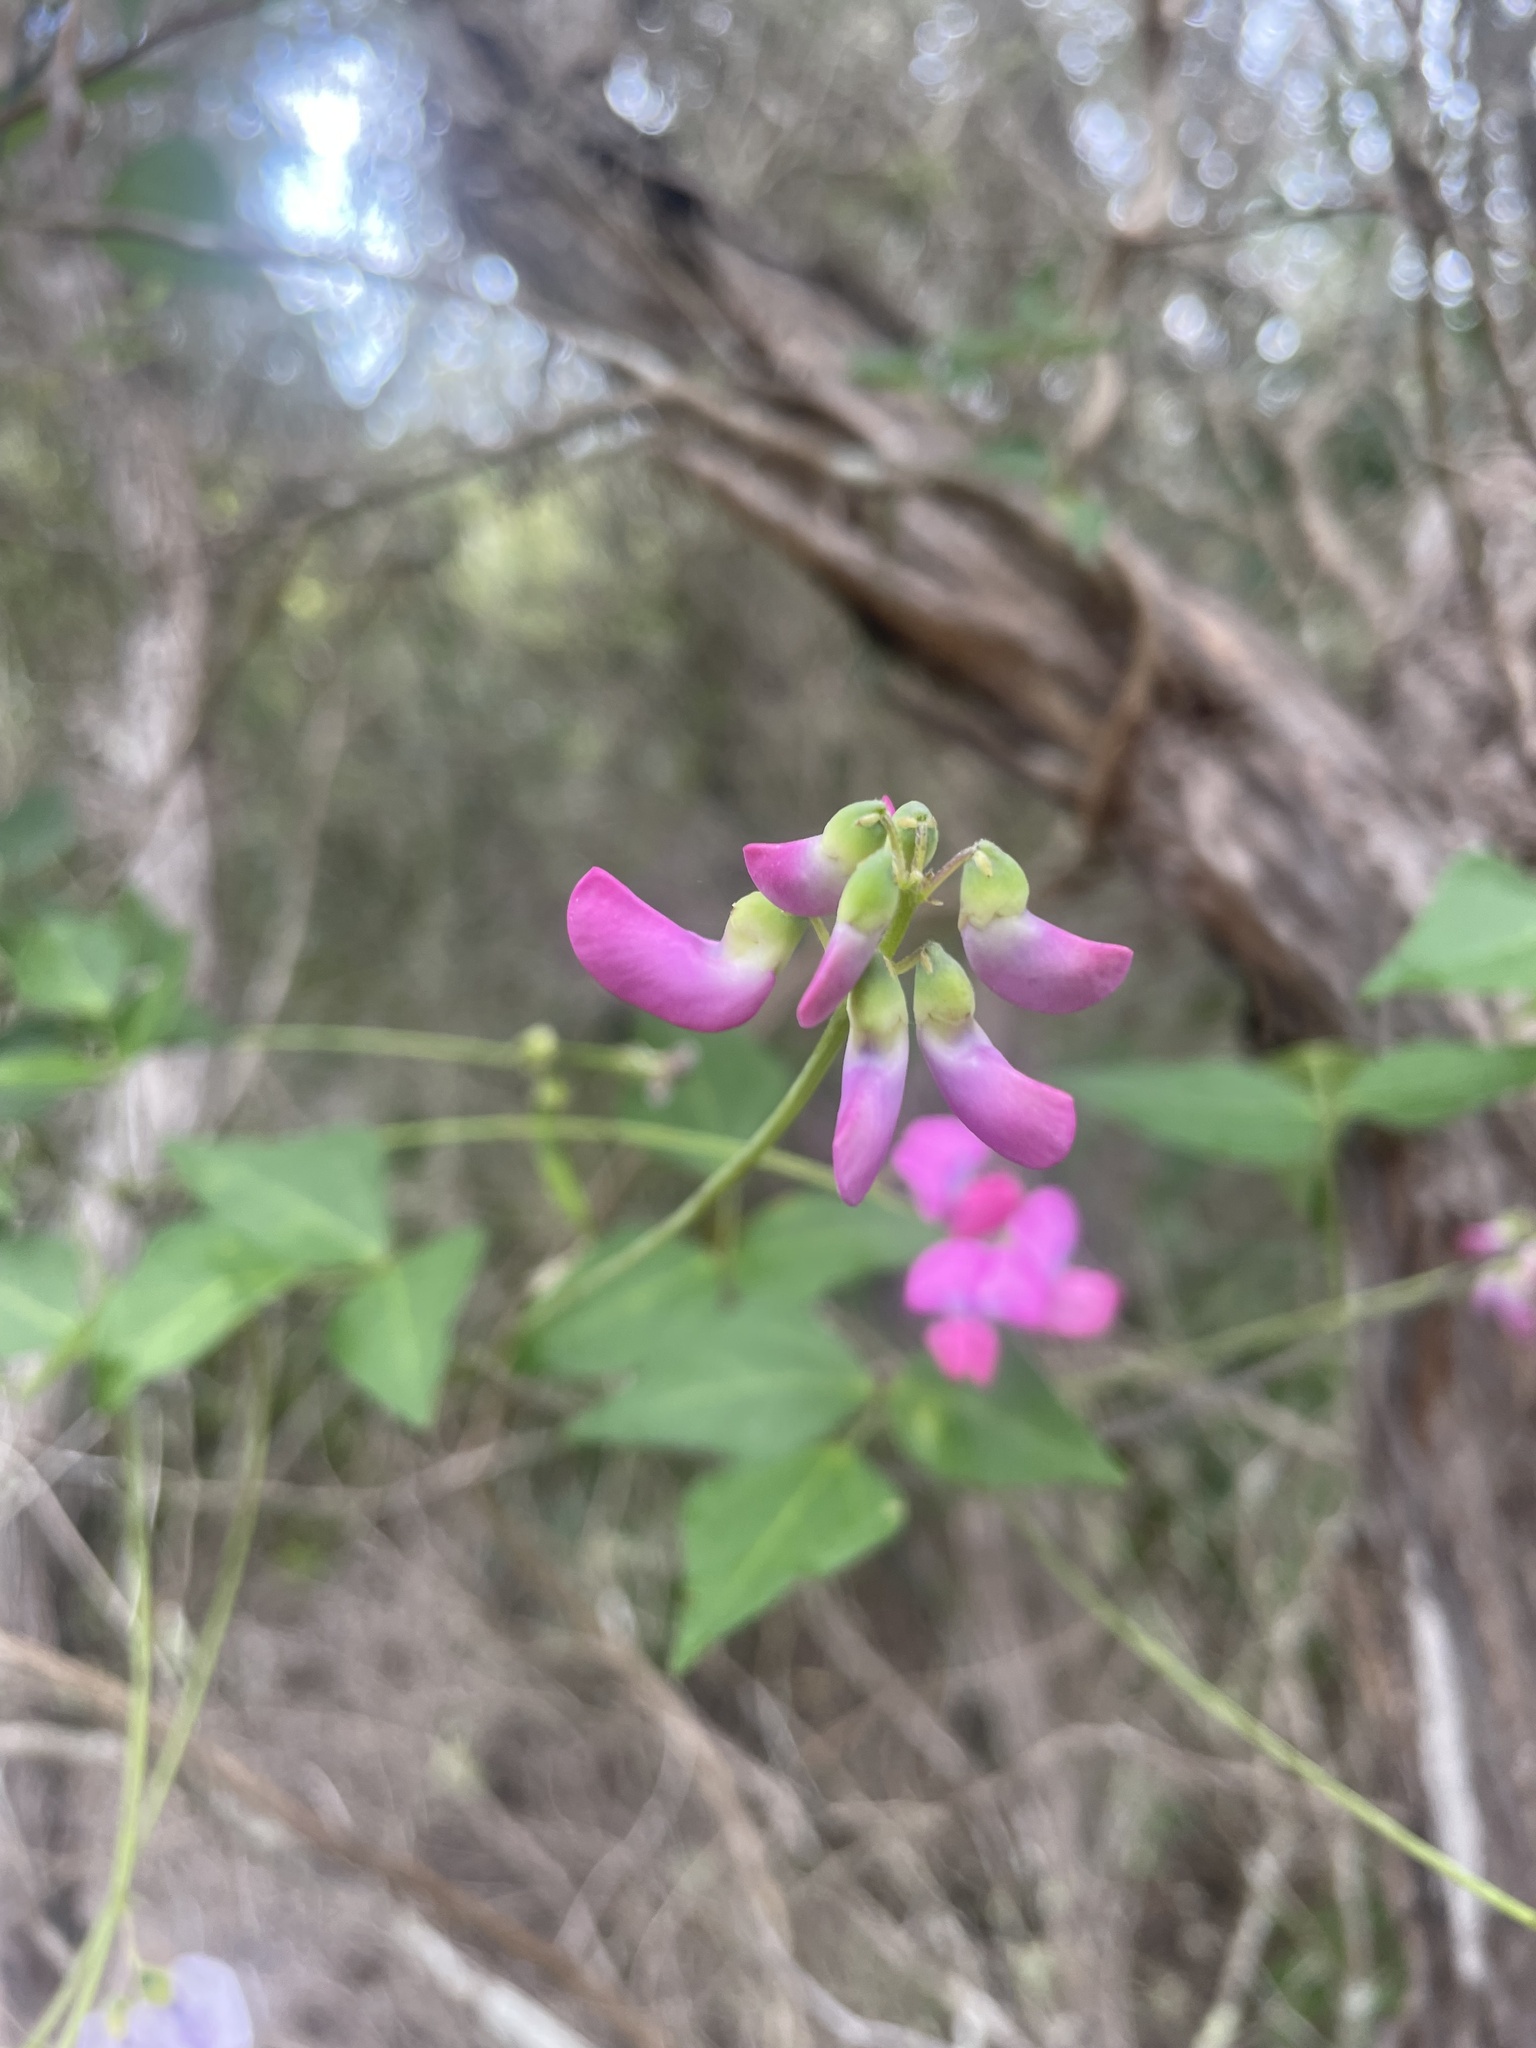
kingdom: Plantae
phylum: Tracheophyta
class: Magnoliopsida
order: Fabales
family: Fabaceae
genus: Dipogon
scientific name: Dipogon lignosus
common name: Okie bean
